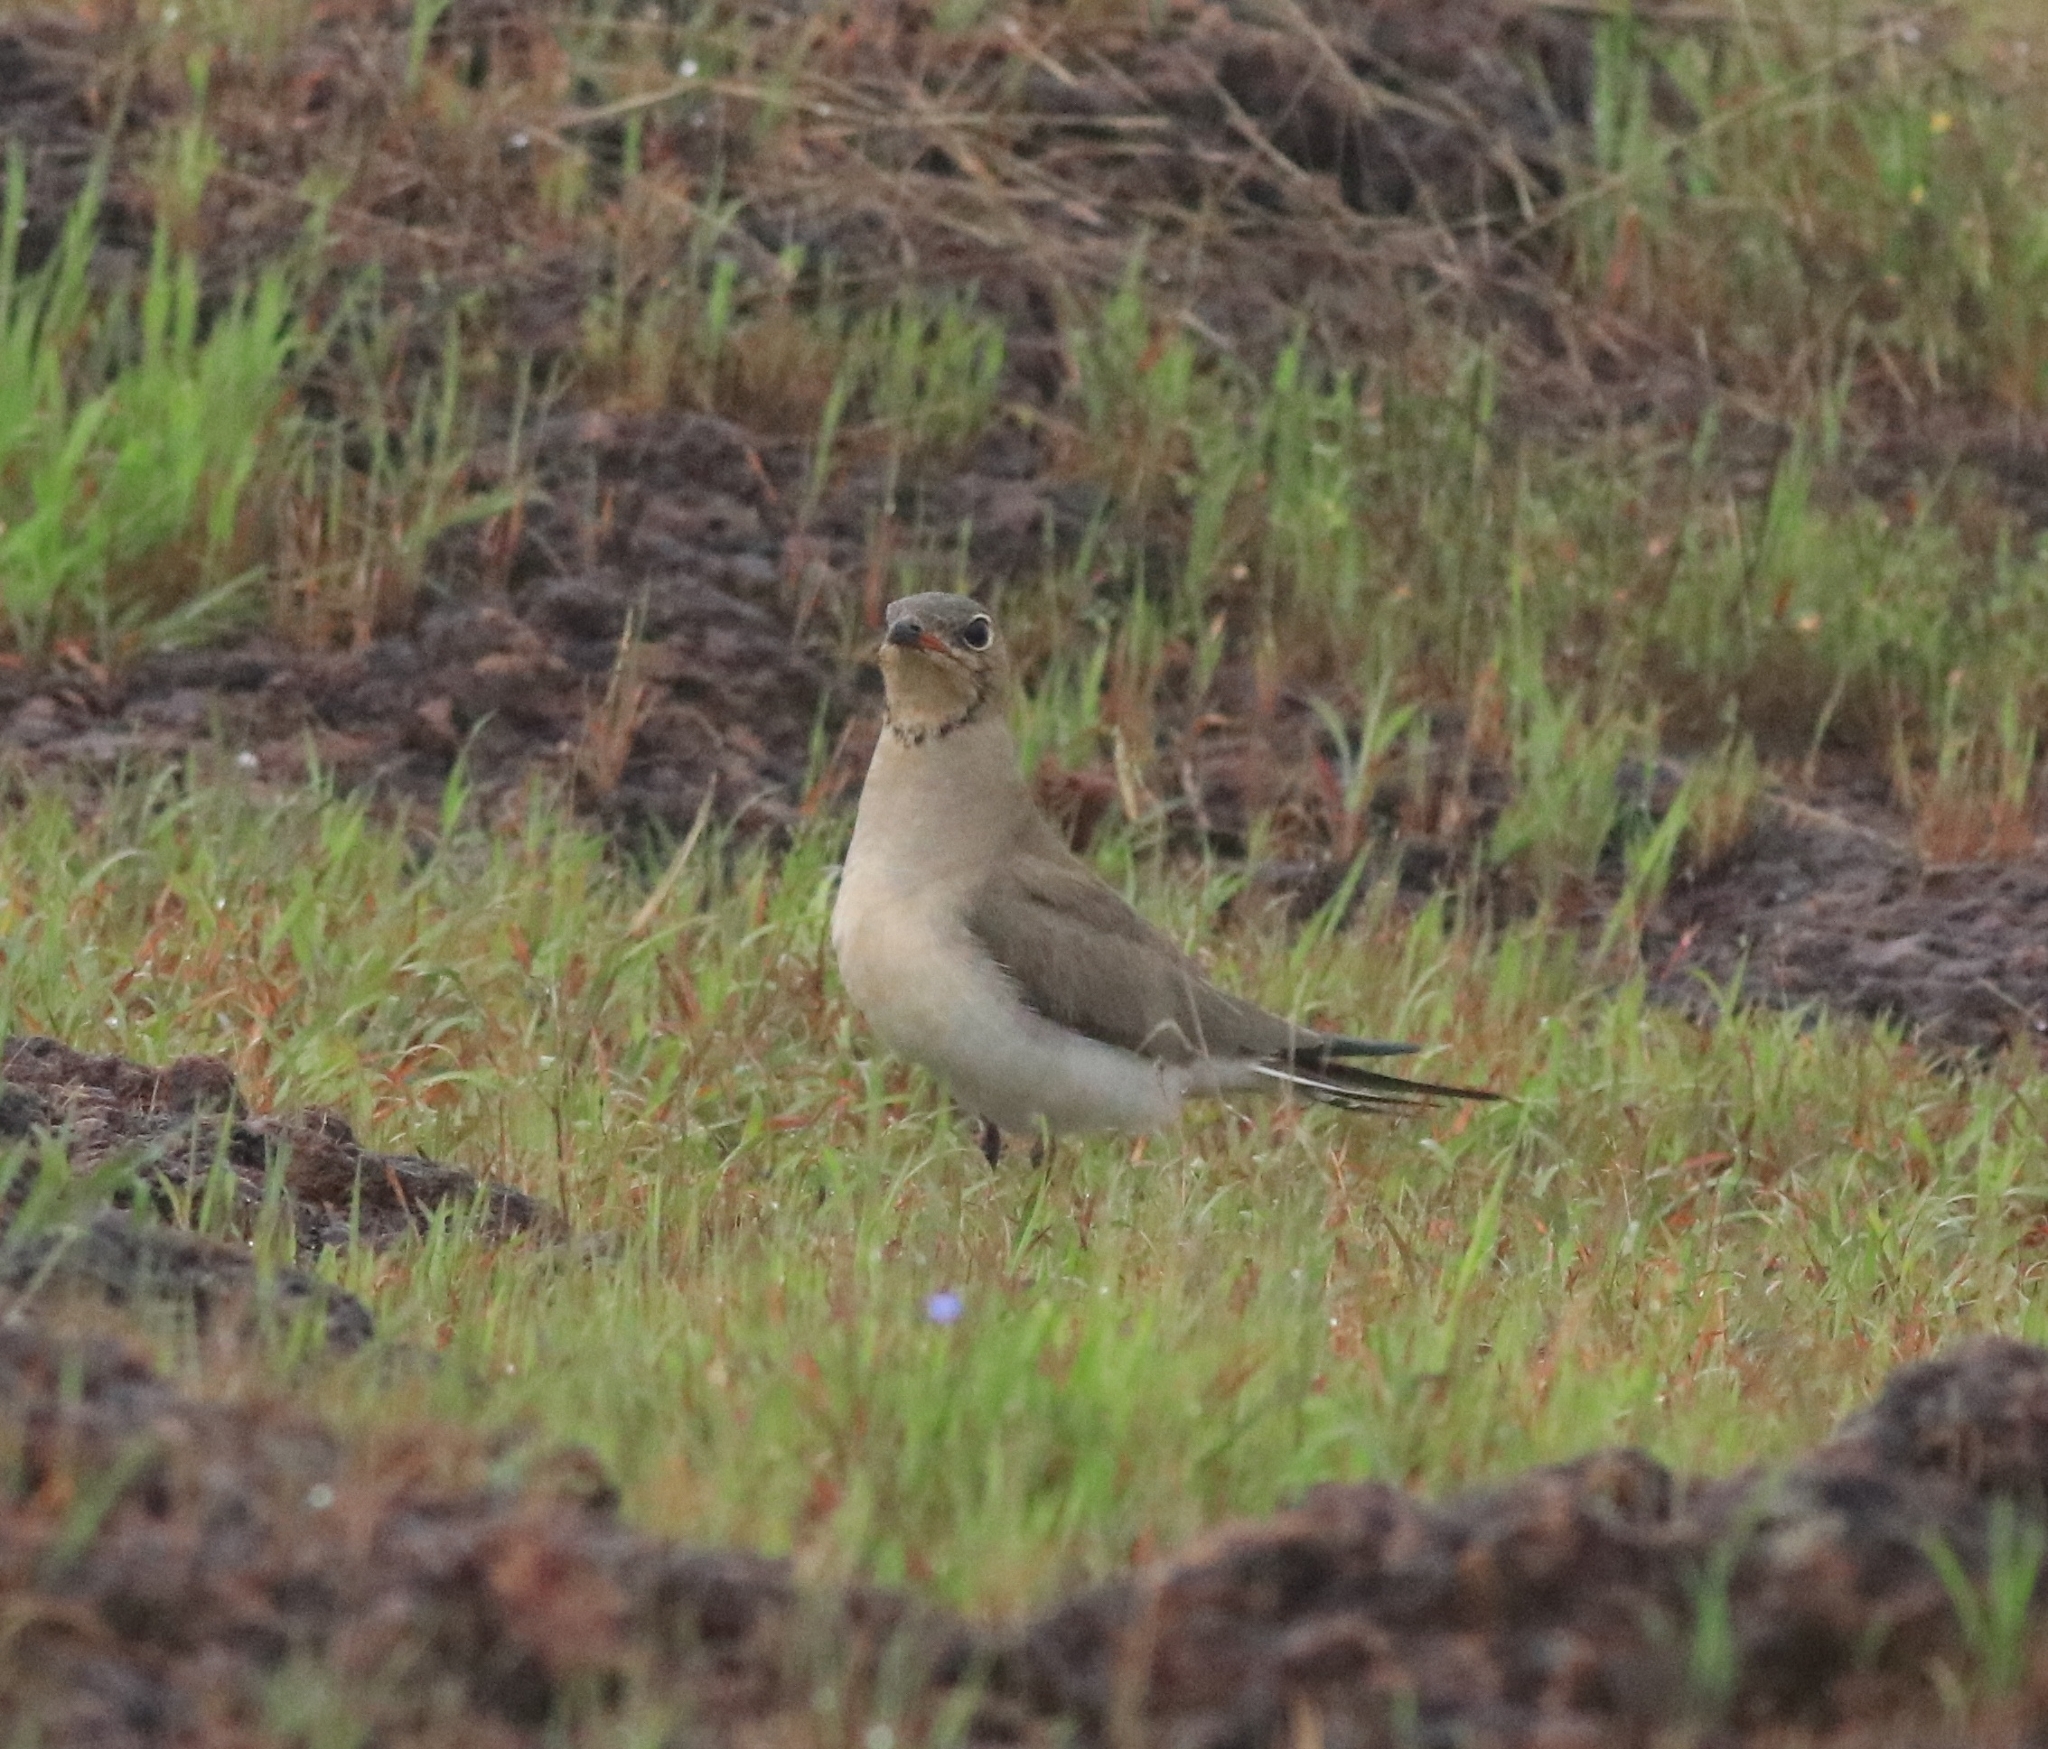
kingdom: Animalia
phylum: Chordata
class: Aves
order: Charadriiformes
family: Glareolidae
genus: Glareola
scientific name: Glareola pratincola
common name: Collared pratincole
